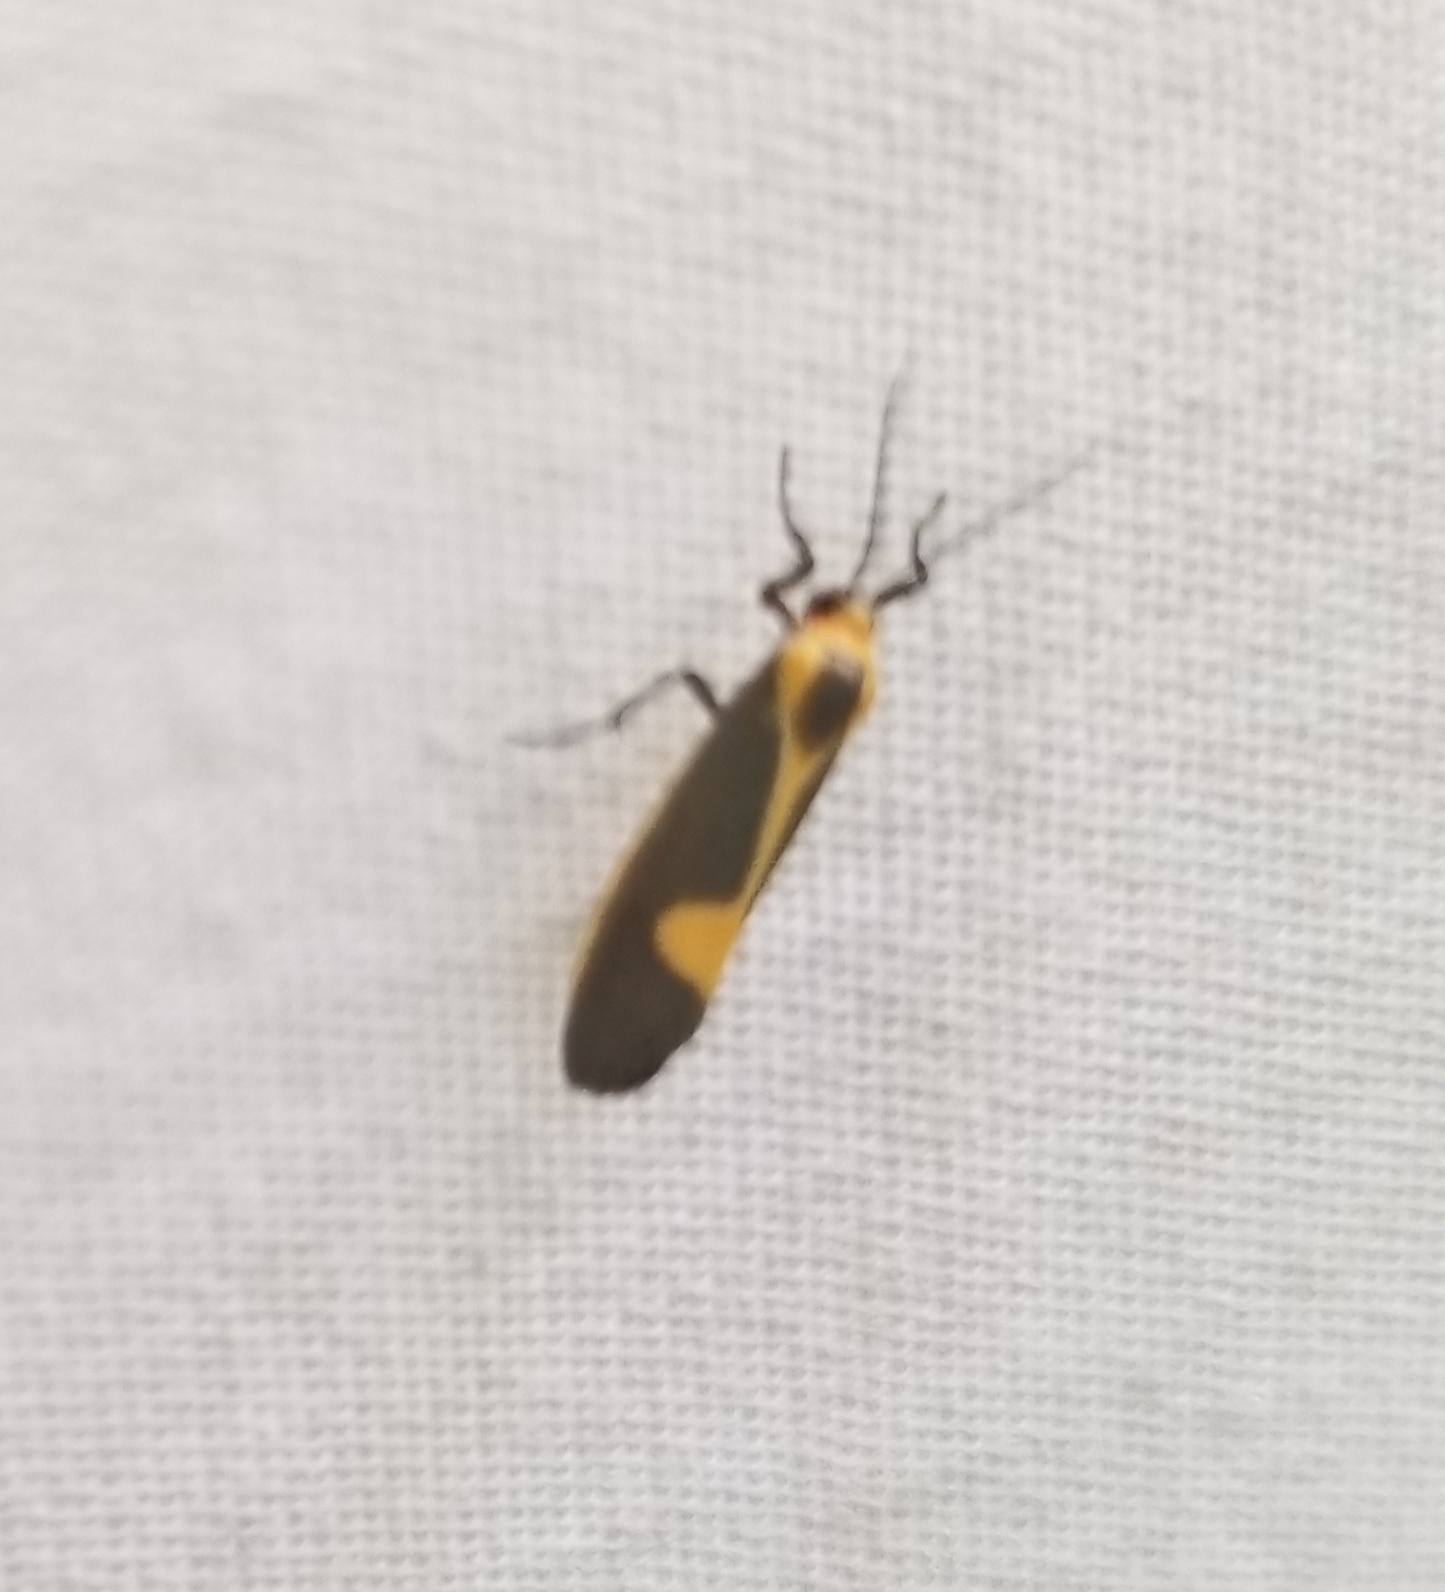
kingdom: Animalia
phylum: Arthropoda
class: Insecta
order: Lepidoptera
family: Erebidae
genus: Cisthene
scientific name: Cisthene plumbea
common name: Lead colored lichen moth
